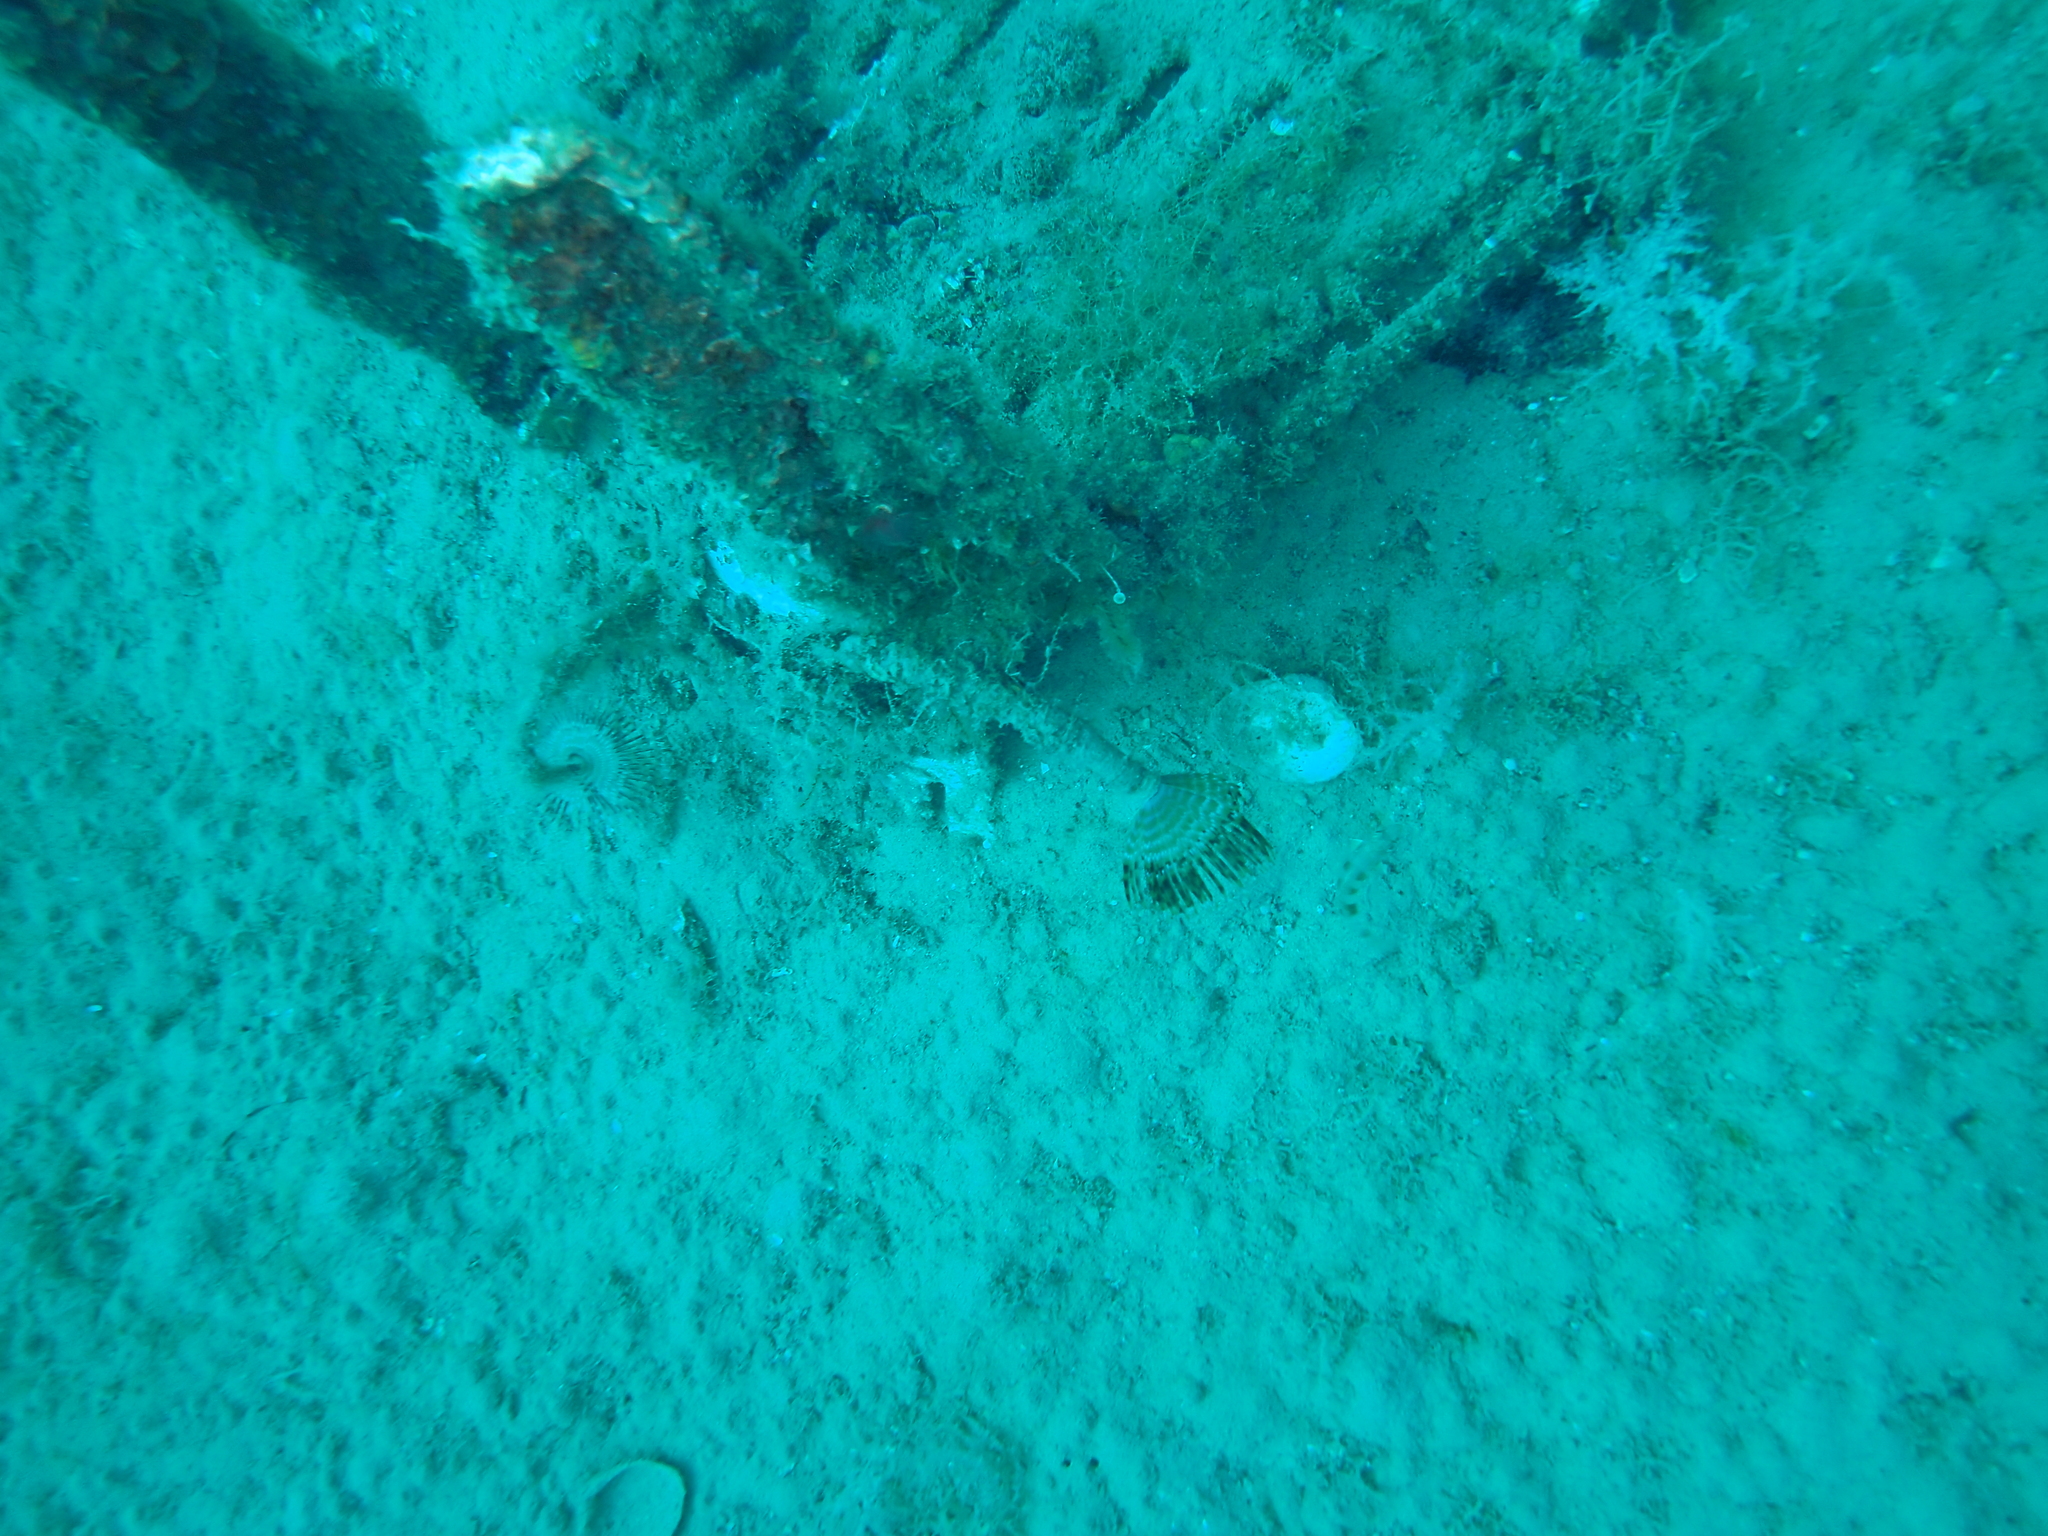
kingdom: Animalia
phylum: Annelida
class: Polychaeta
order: Sabellida
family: Sabellidae
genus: Sabella
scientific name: Sabella spallanzanii
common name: Feather duster worm
